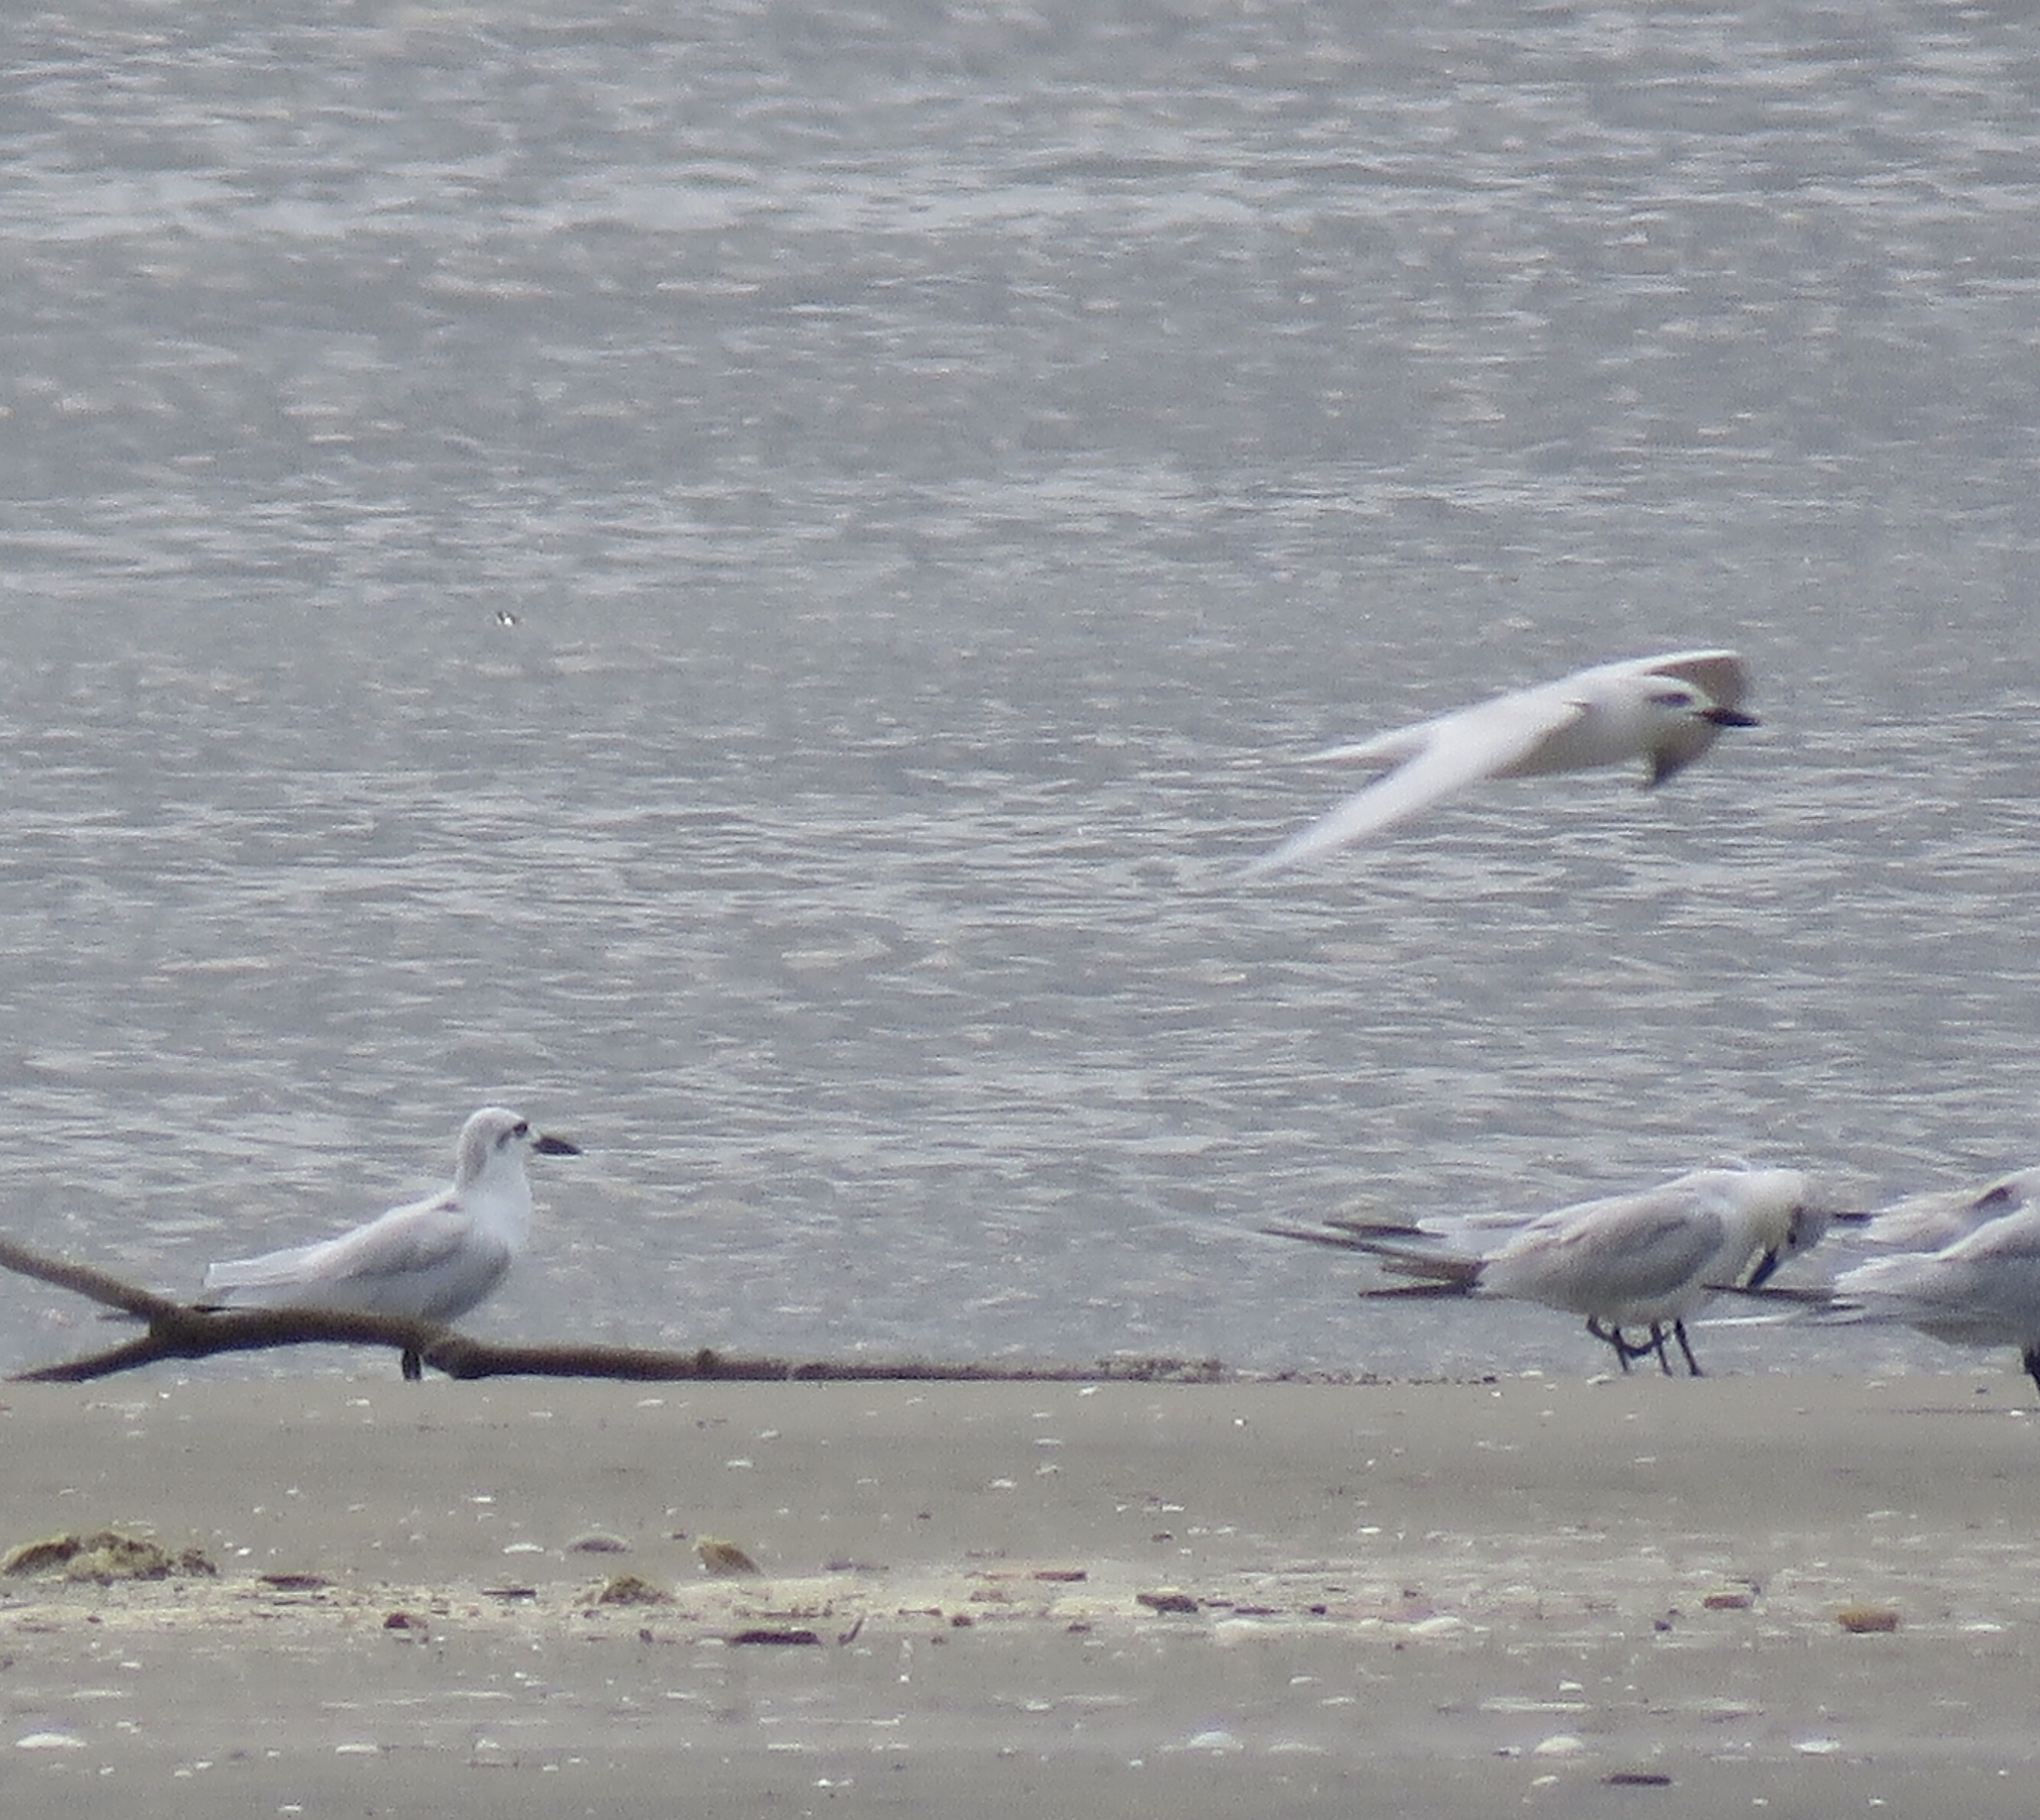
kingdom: Animalia
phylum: Chordata
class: Aves
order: Charadriiformes
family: Laridae
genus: Gelochelidon
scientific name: Gelochelidon nilotica
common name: Gull-billed tern
